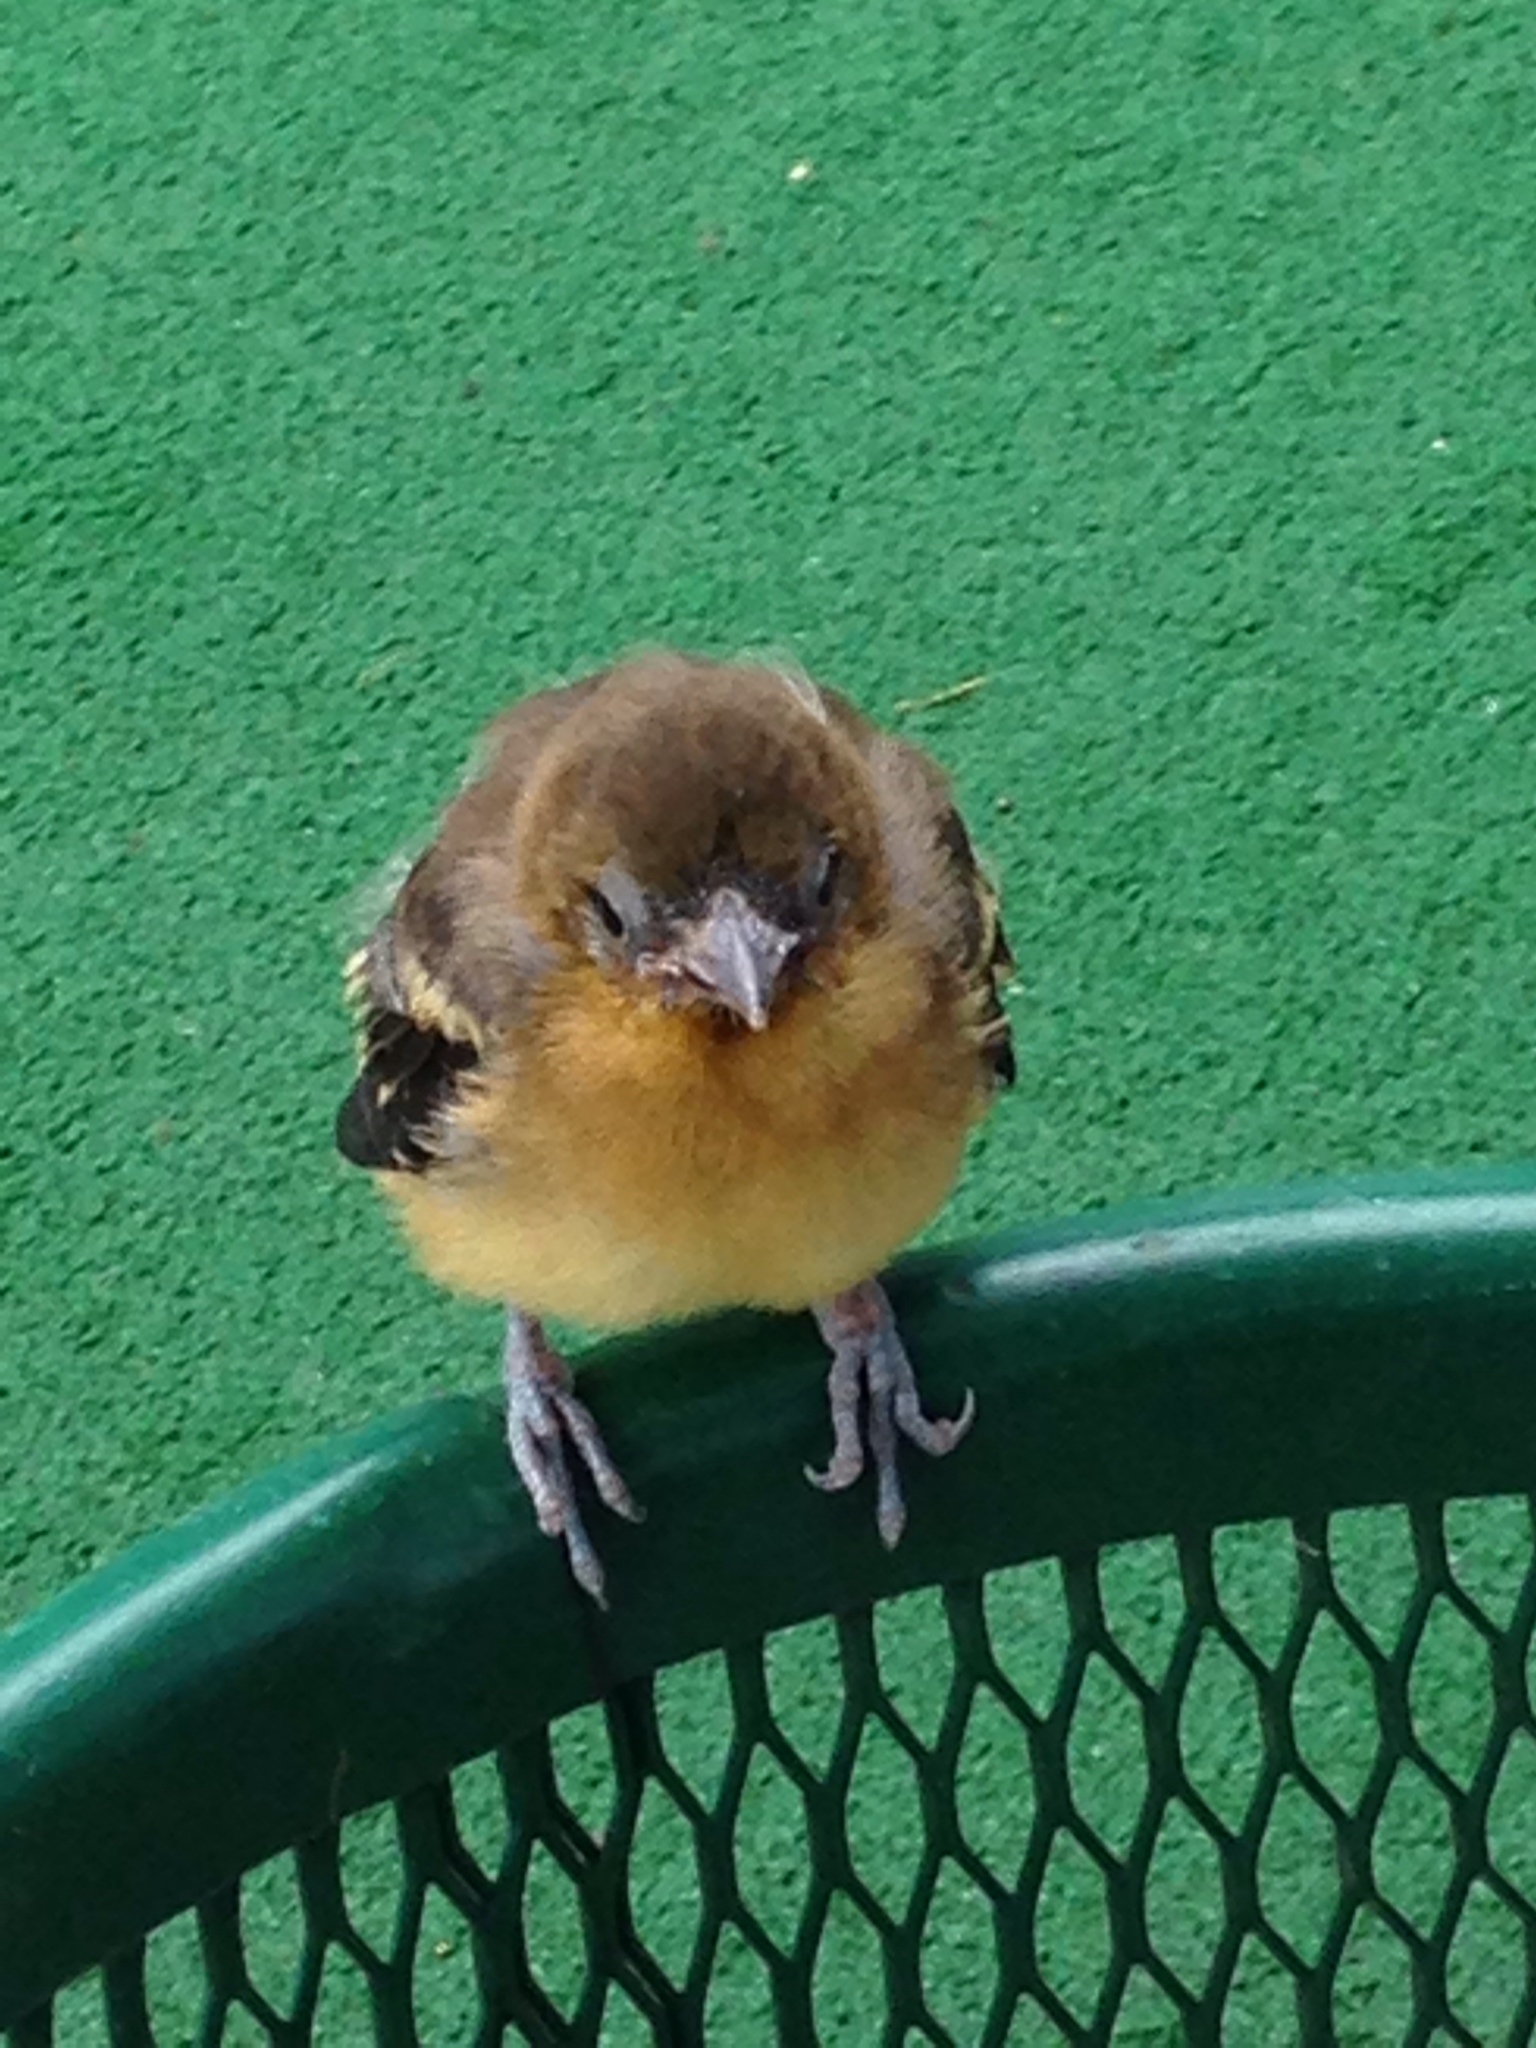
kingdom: Animalia
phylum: Chordata
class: Aves
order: Passeriformes
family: Icteridae
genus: Icterus
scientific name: Icterus galbula
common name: Baltimore oriole
